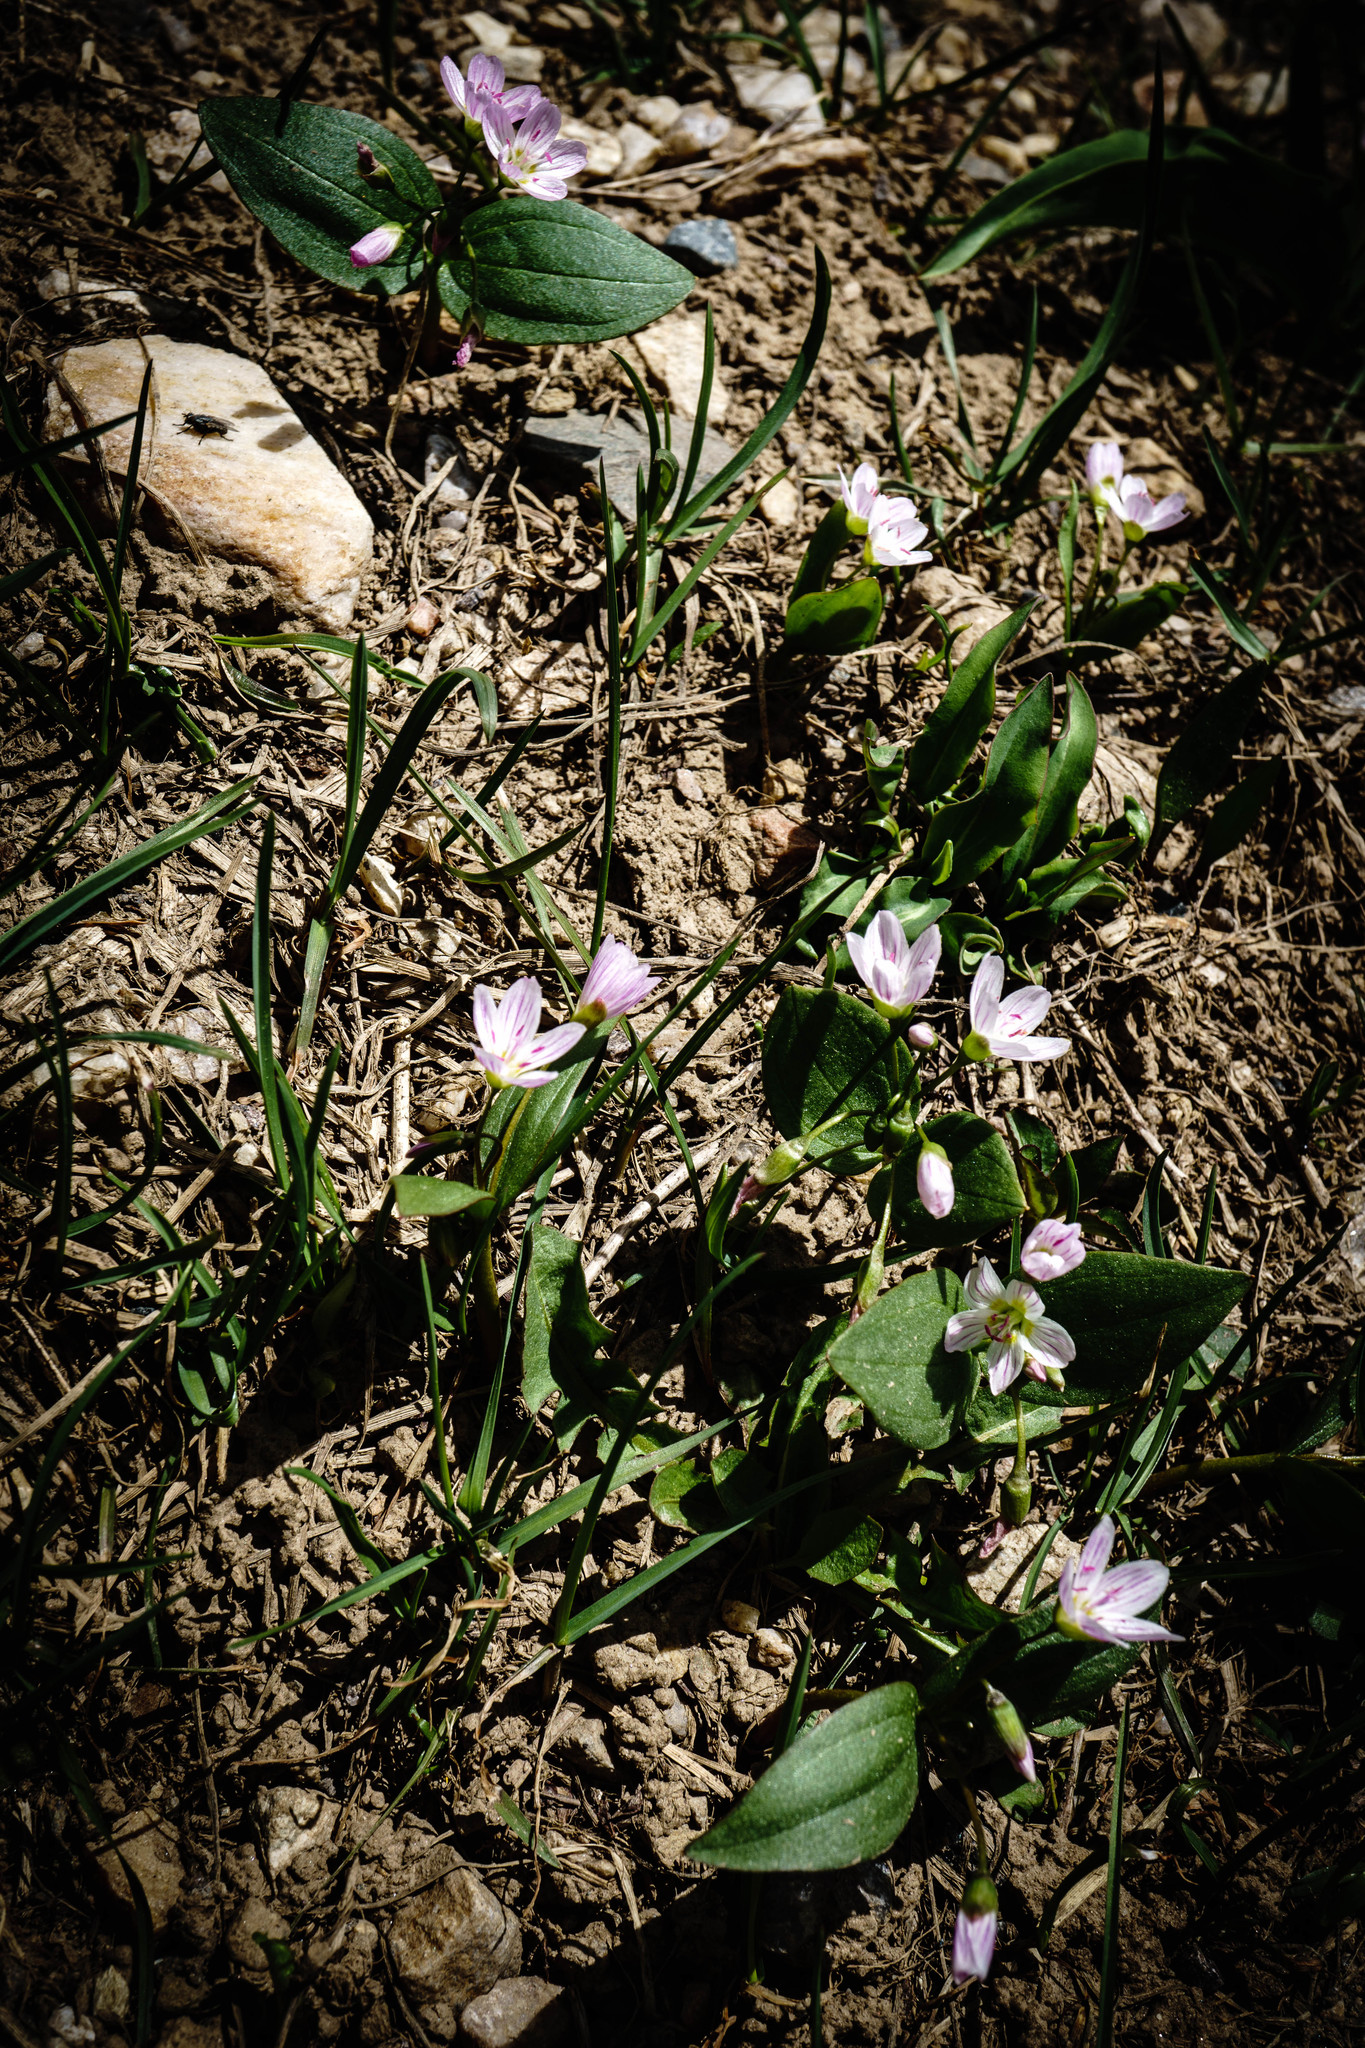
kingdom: Plantae
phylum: Tracheophyta
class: Magnoliopsida
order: Caryophyllales
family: Montiaceae
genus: Claytonia
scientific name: Claytonia lanceolata
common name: Western spring-beauty
